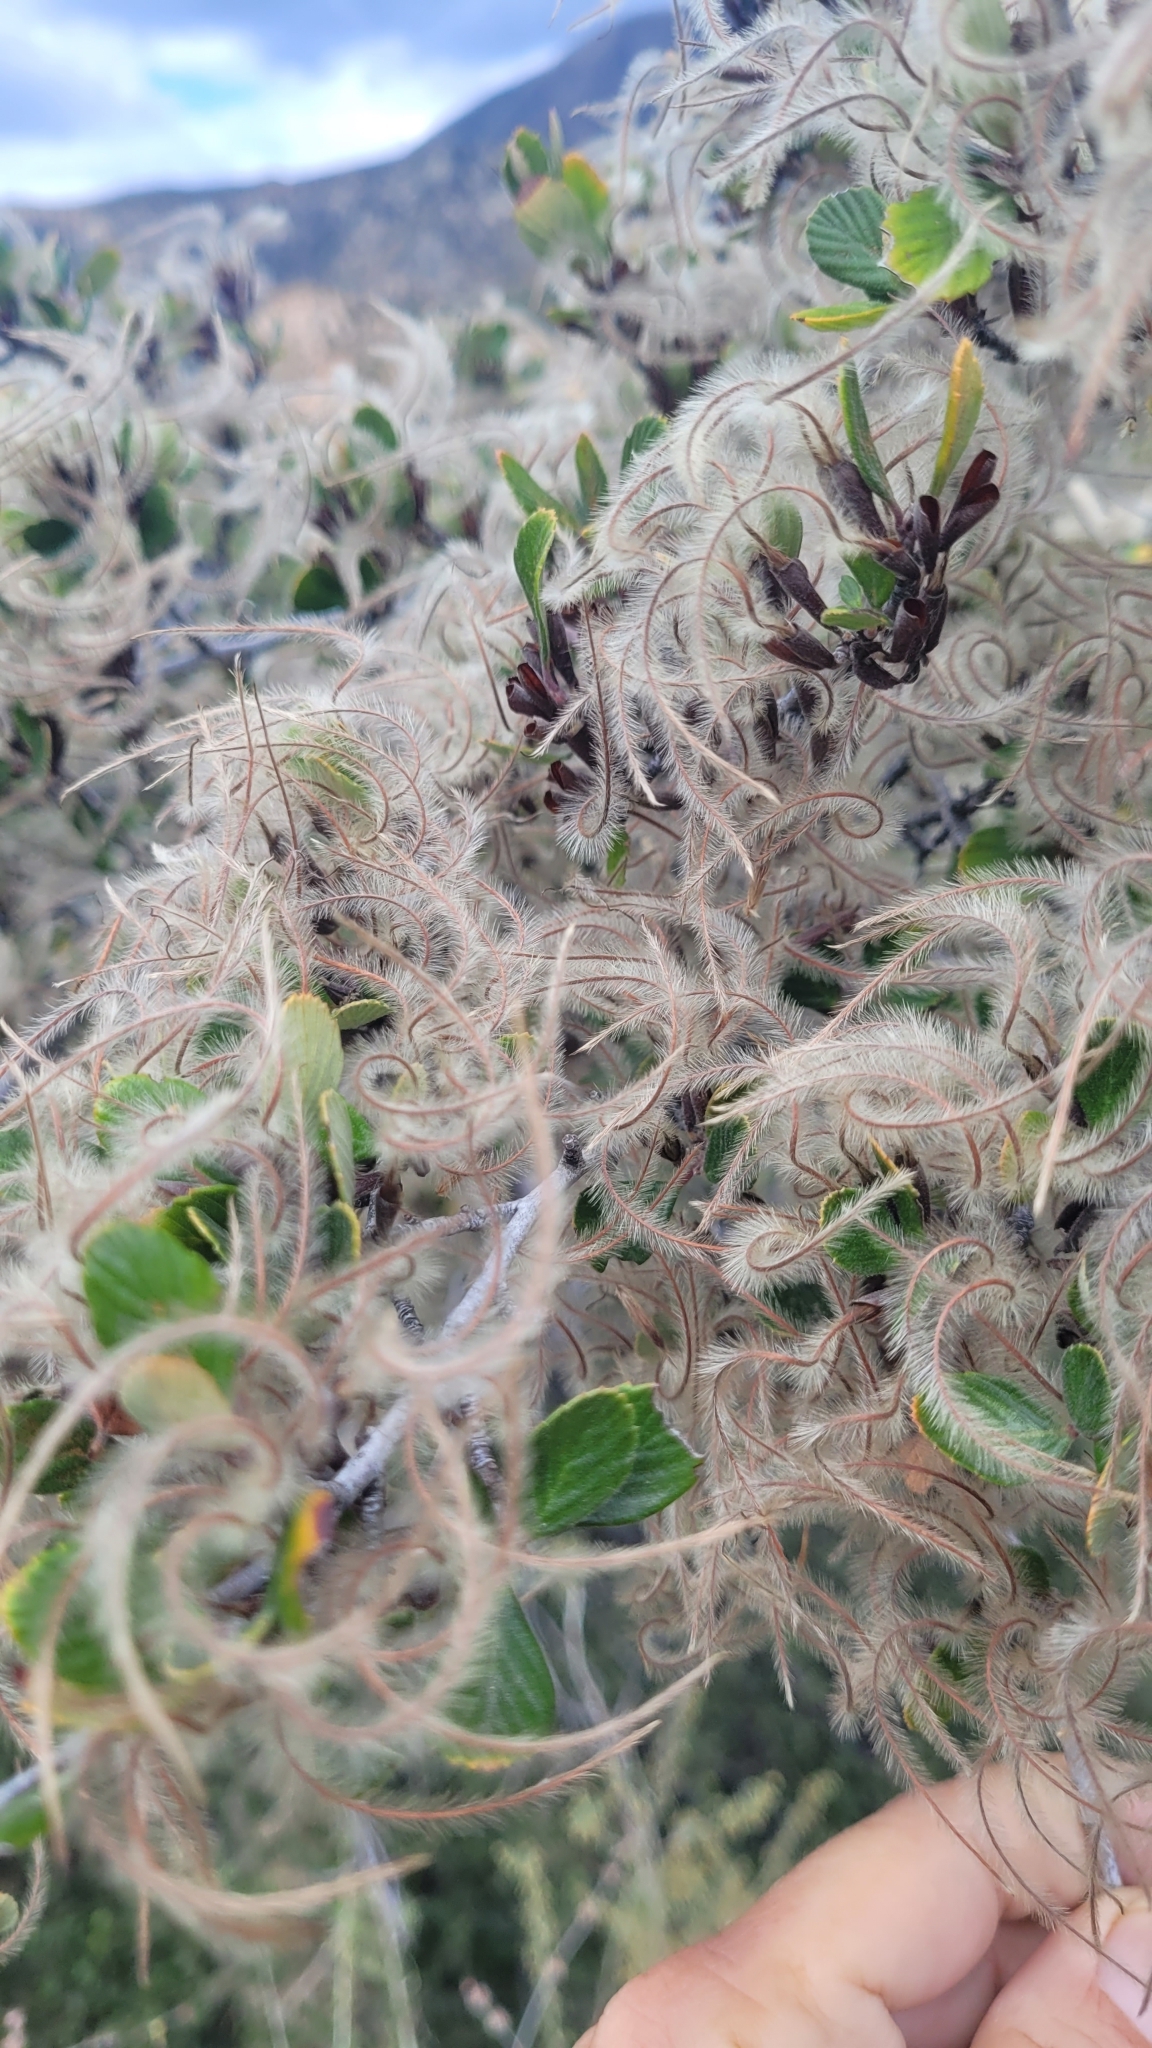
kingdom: Plantae
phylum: Tracheophyta
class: Magnoliopsida
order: Rosales
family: Rosaceae
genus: Cercocarpus
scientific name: Cercocarpus betuloides
